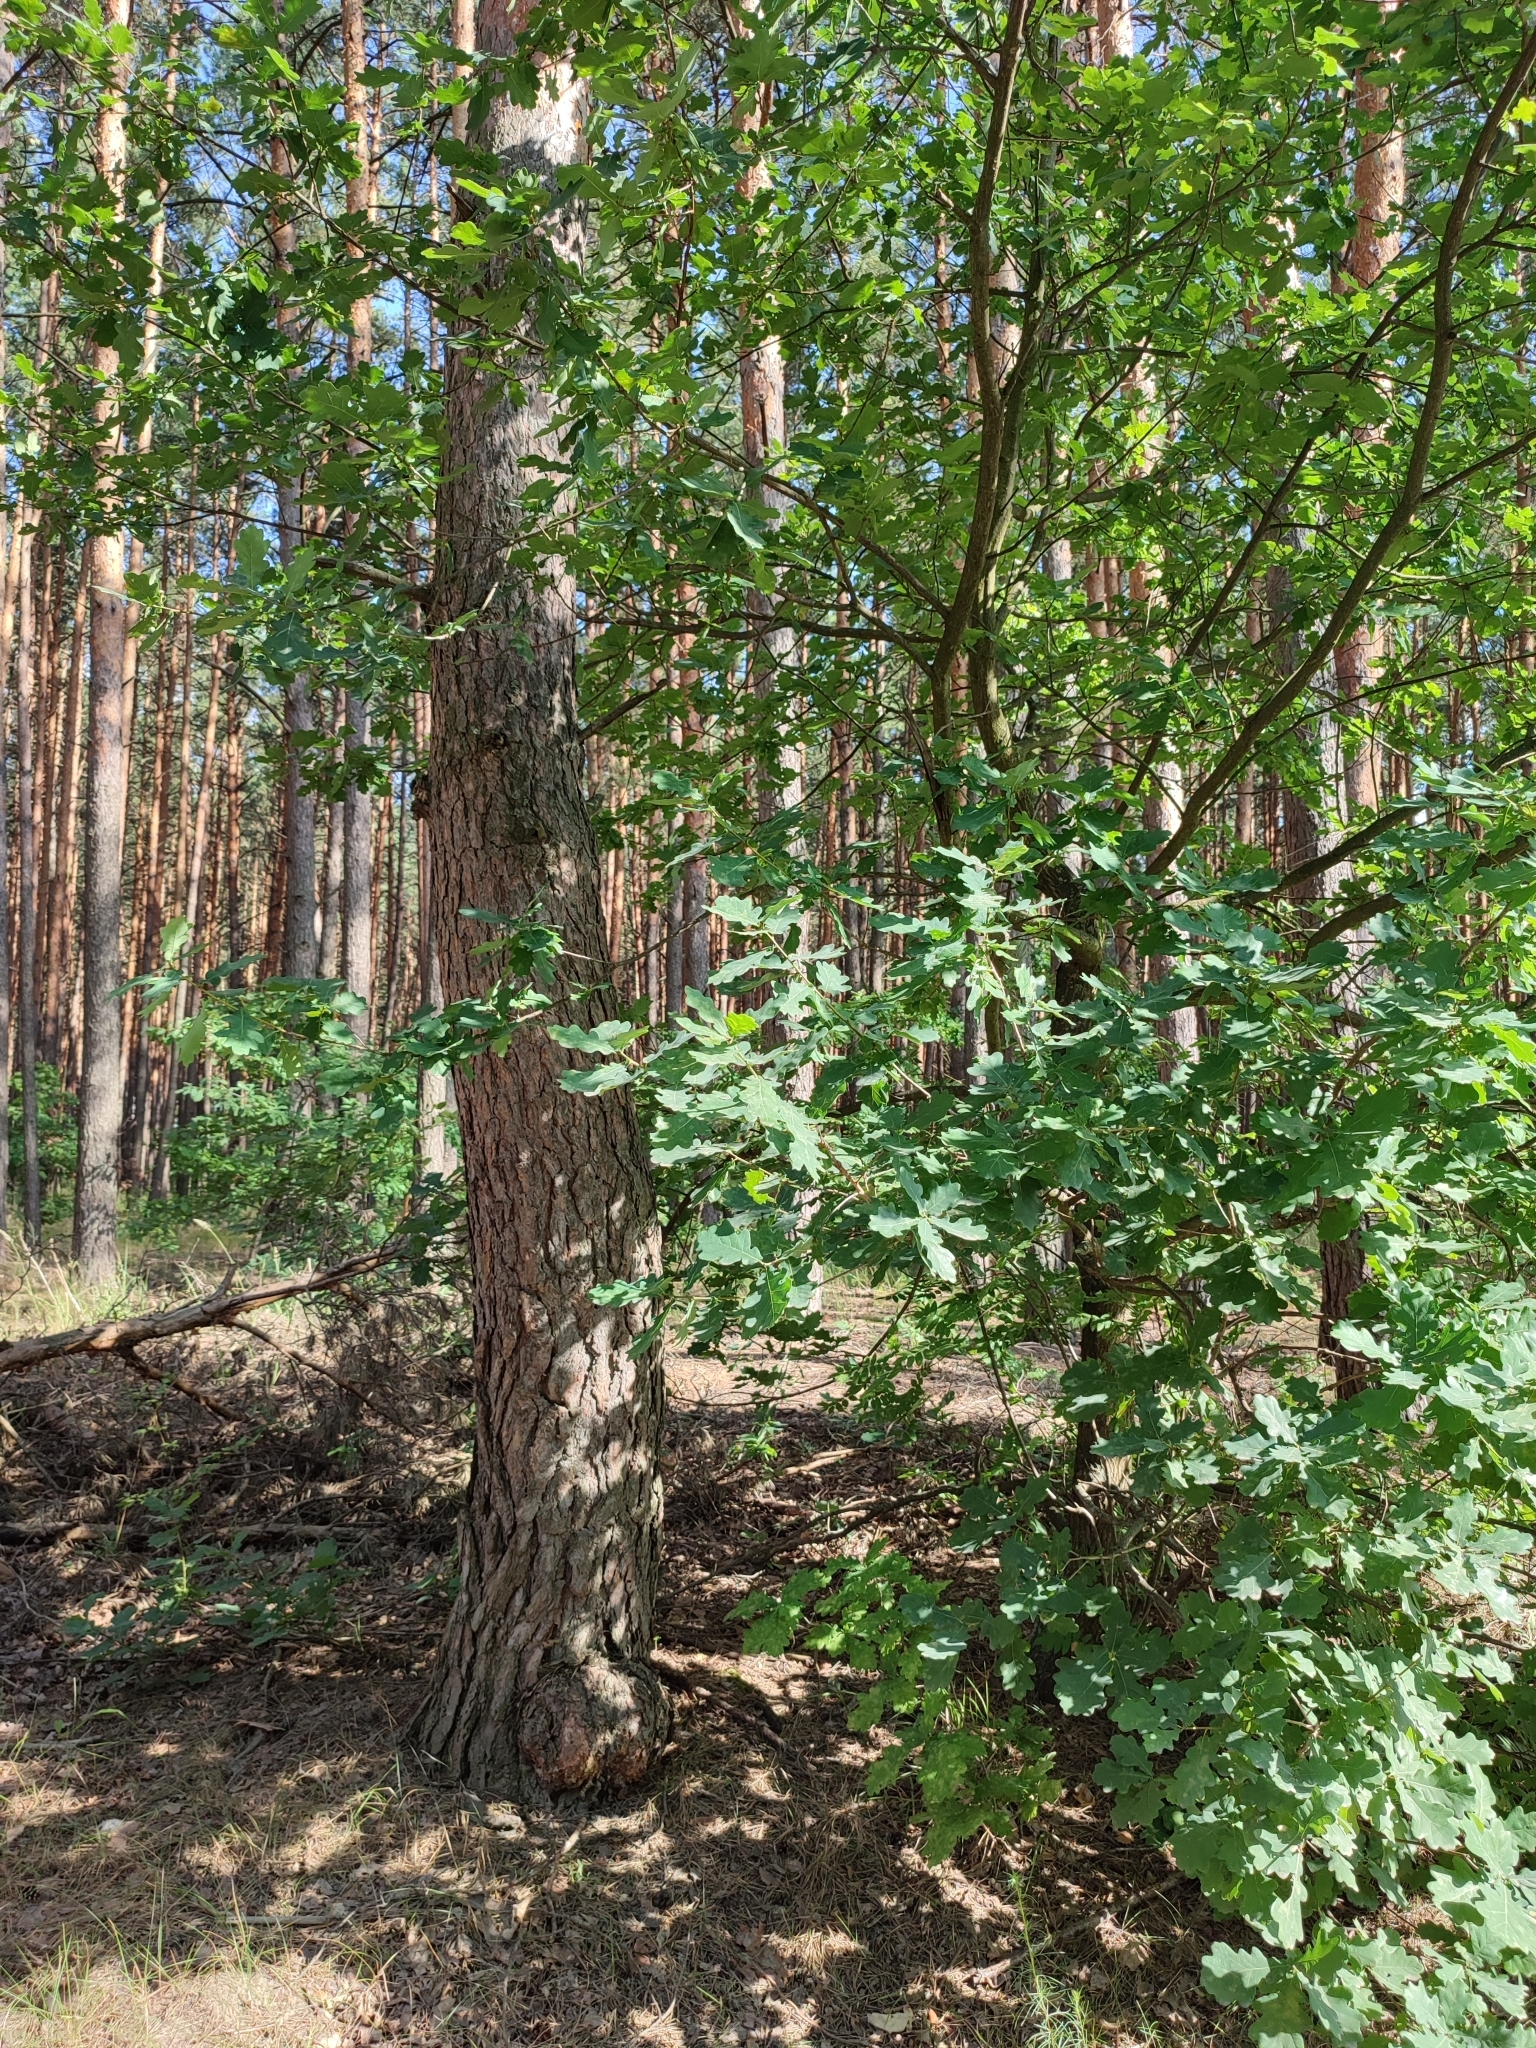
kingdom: Plantae
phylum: Tracheophyta
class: Magnoliopsida
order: Fagales
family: Fagaceae
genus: Quercus
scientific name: Quercus robur
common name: Pedunculate oak
